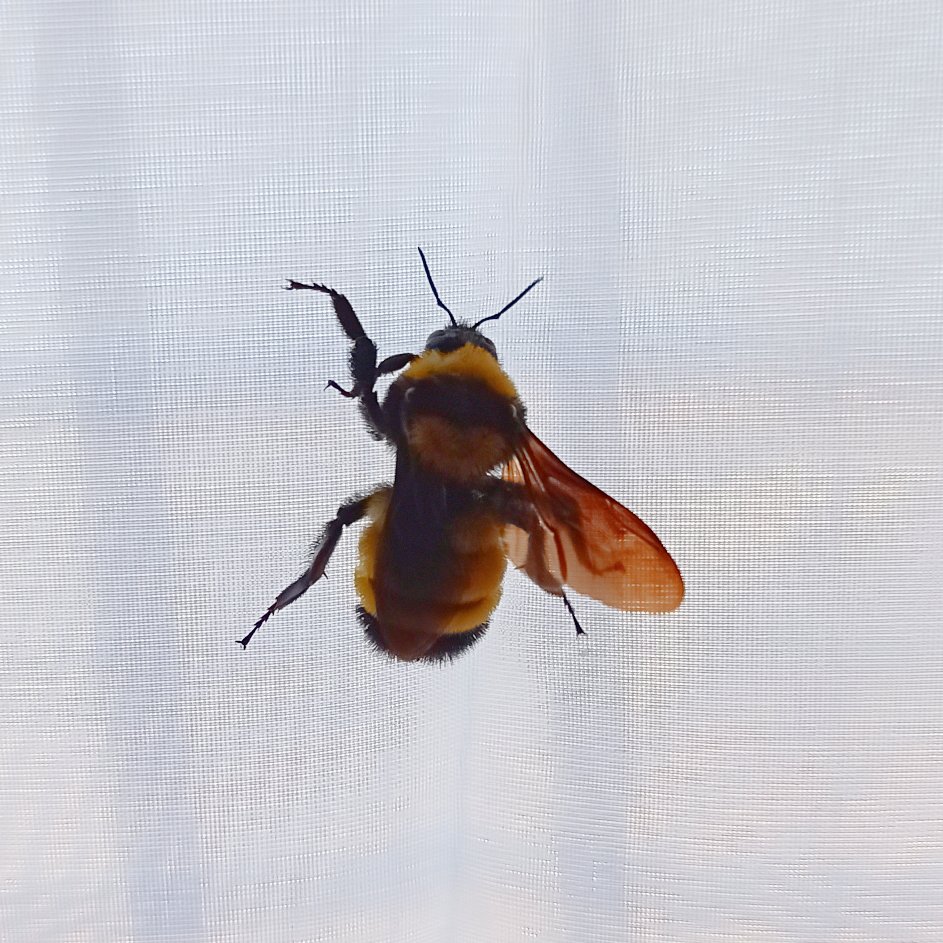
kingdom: Animalia
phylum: Arthropoda
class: Insecta
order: Hymenoptera
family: Apidae
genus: Bombus
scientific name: Bombus sonorus
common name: Sonoran bumble bee
